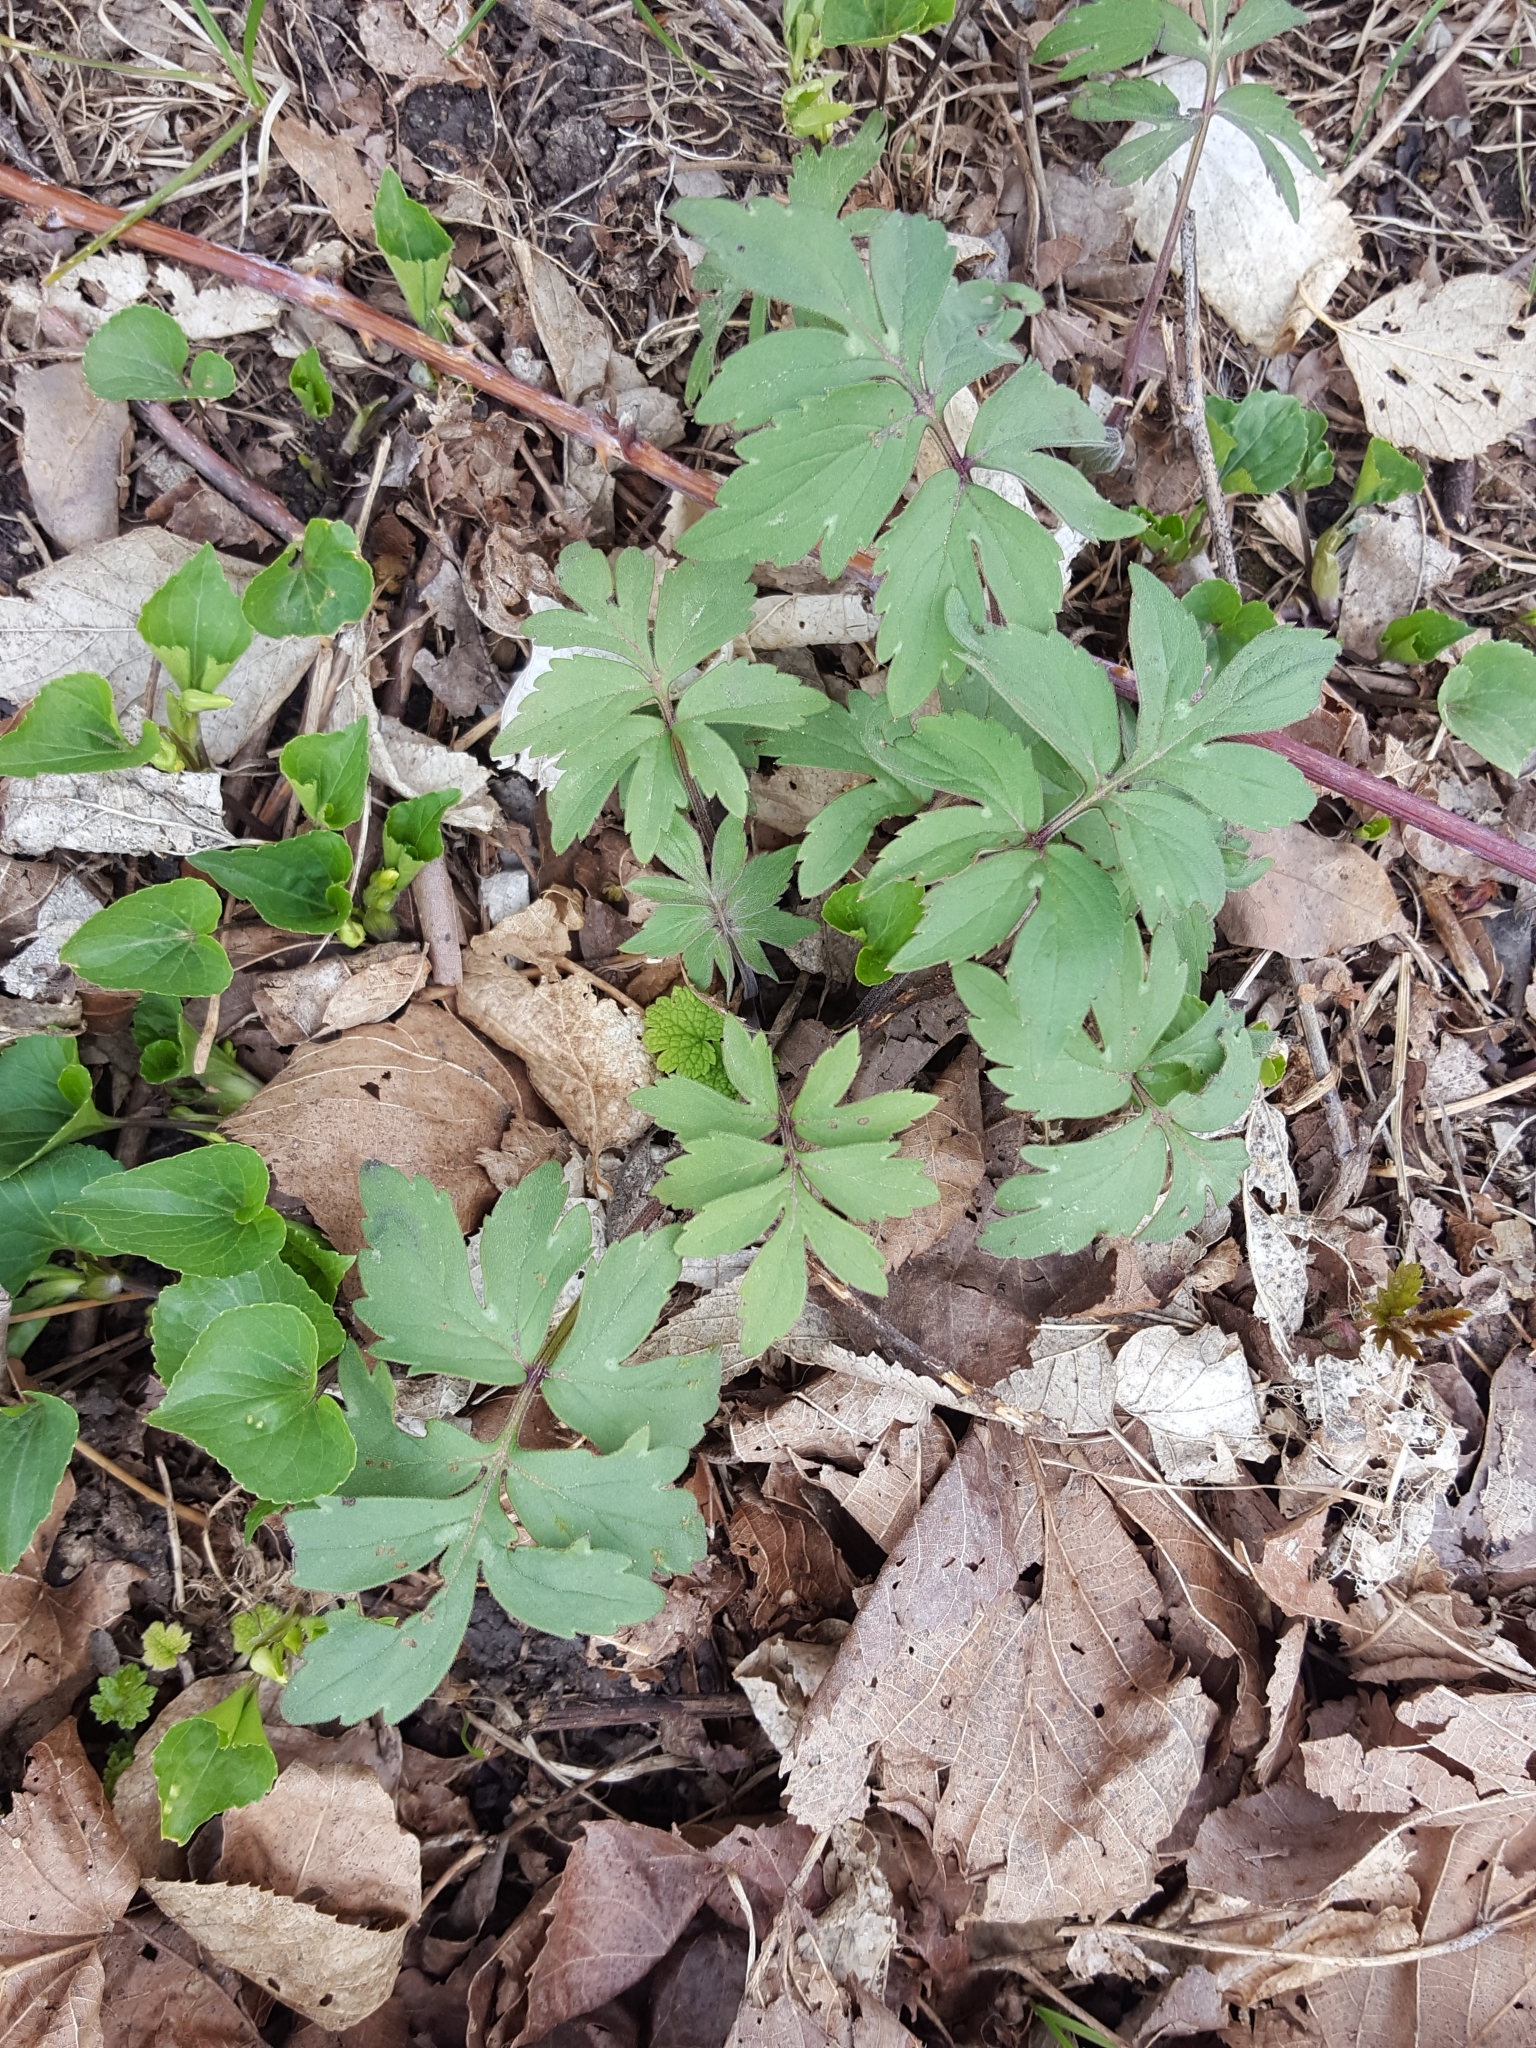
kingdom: Plantae
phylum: Tracheophyta
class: Magnoliopsida
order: Boraginales
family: Hydrophyllaceae
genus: Hydrophyllum
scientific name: Hydrophyllum virginianum
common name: Virginia waterleaf
